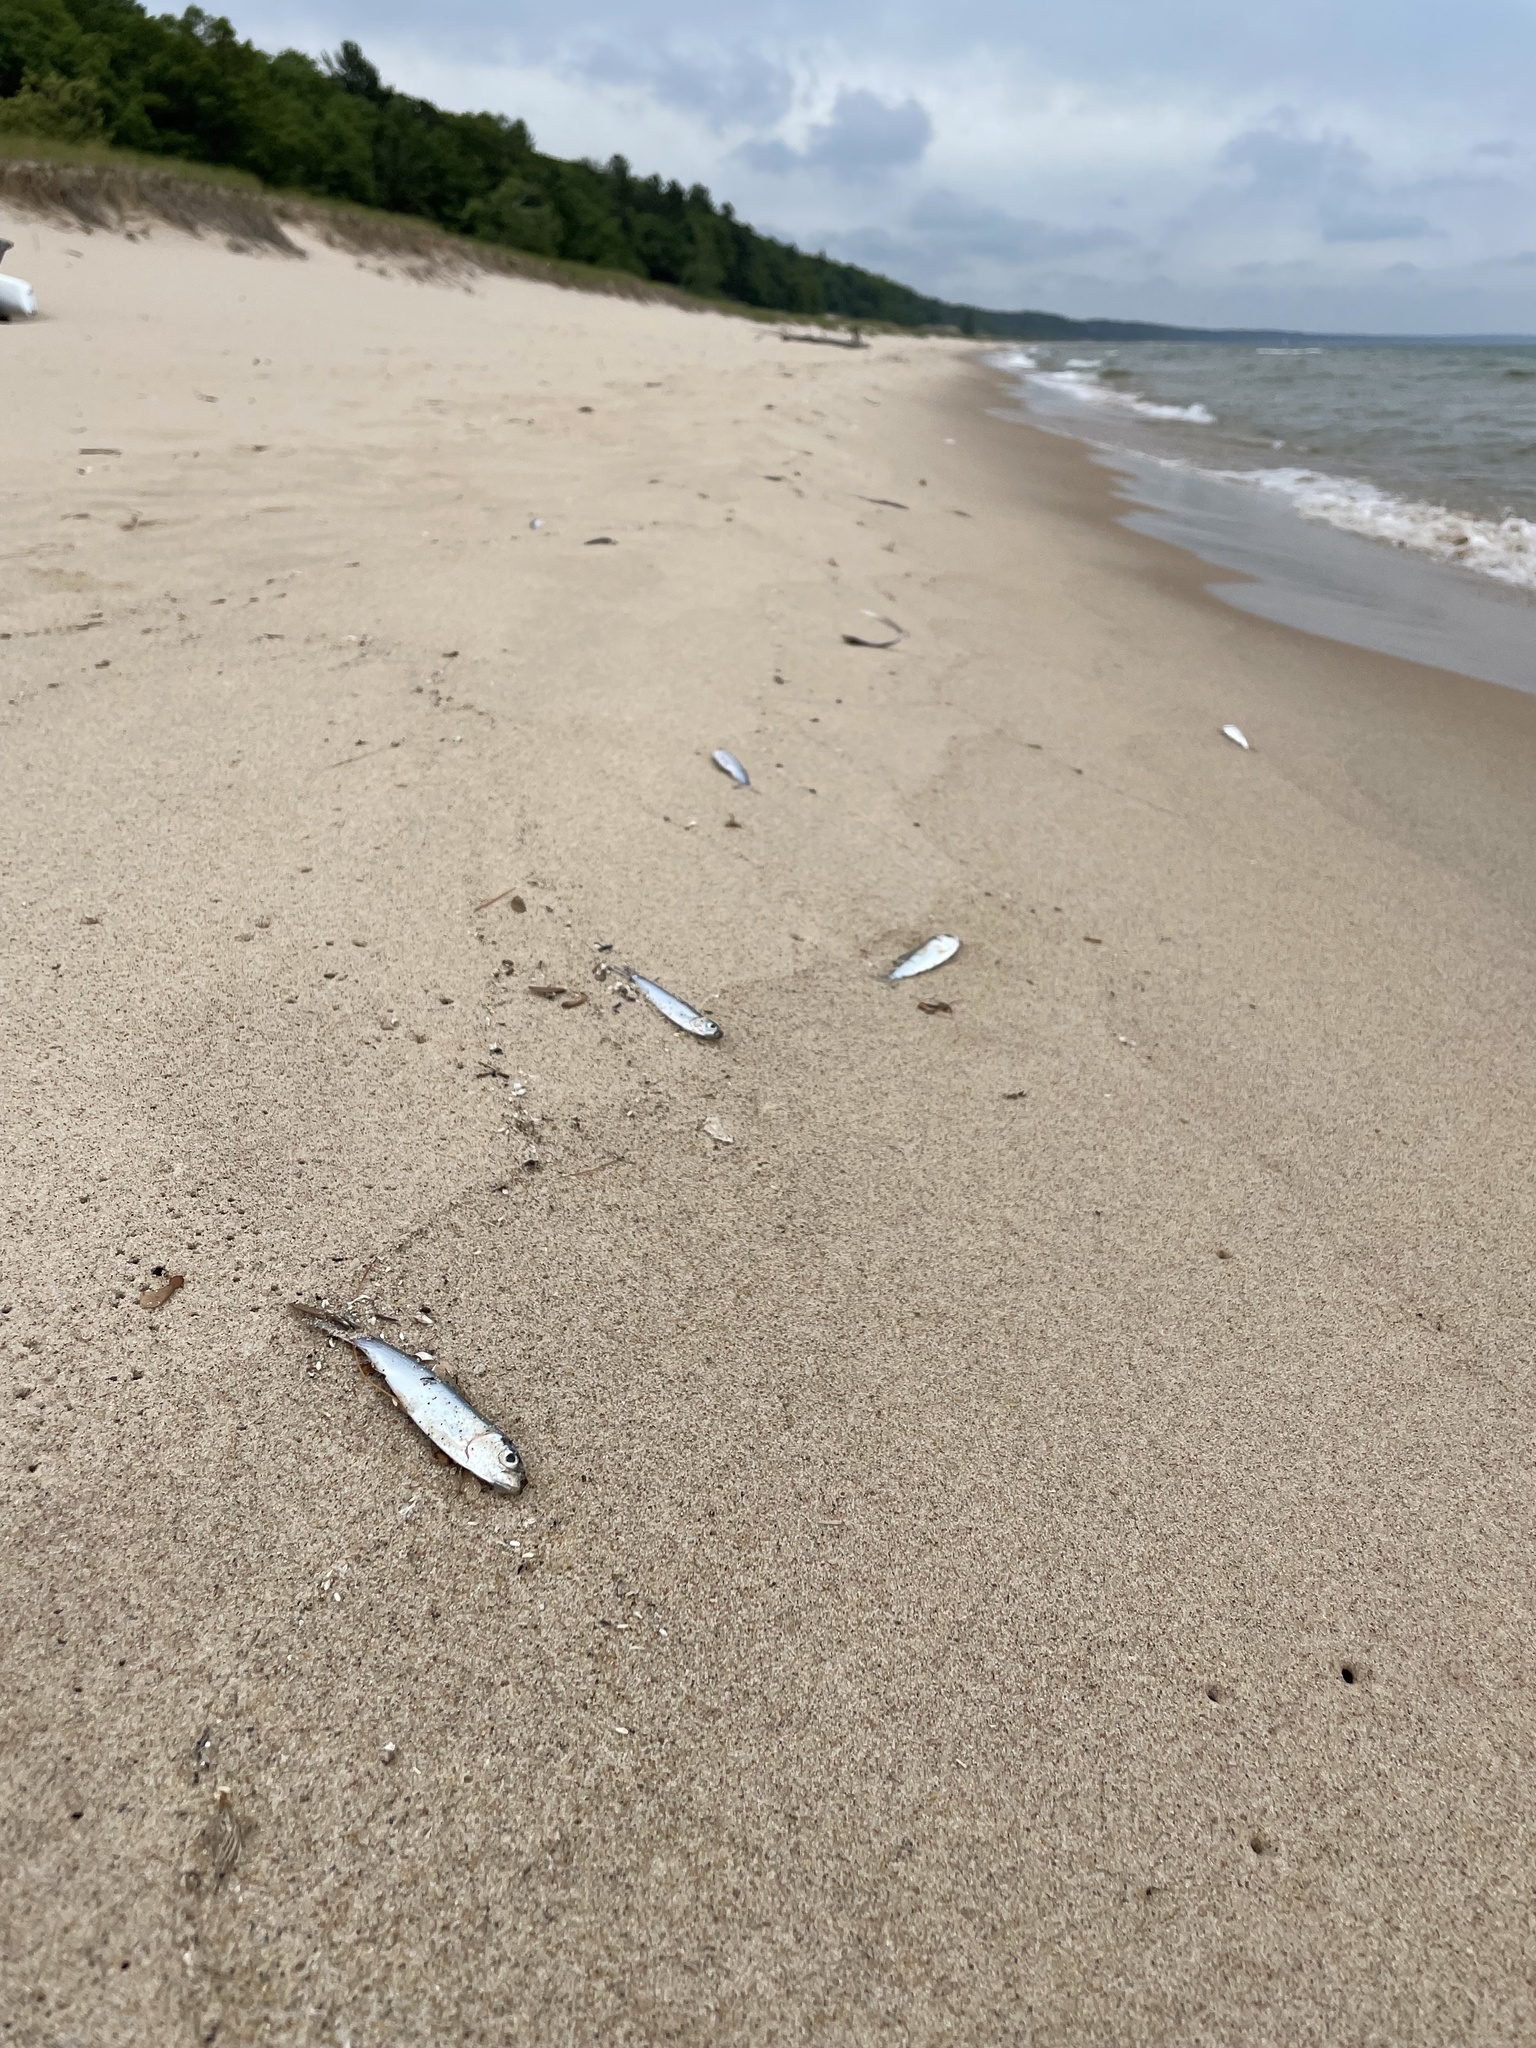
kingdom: Animalia
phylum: Chordata
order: Clupeiformes
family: Clupeidae
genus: Alosa
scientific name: Alosa pseudoharengus
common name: Alewife
